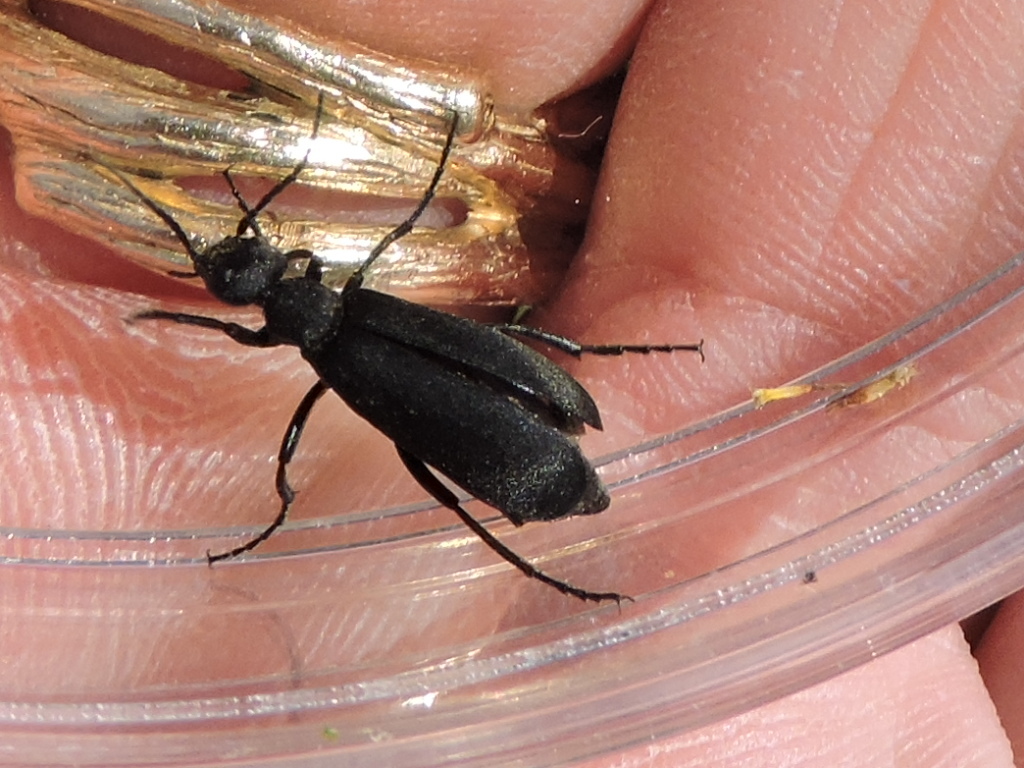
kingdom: Animalia
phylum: Arthropoda
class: Insecta
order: Coleoptera
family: Meloidae
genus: Epicauta
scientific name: Epicauta pensylvanica
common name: Black blister beetle
